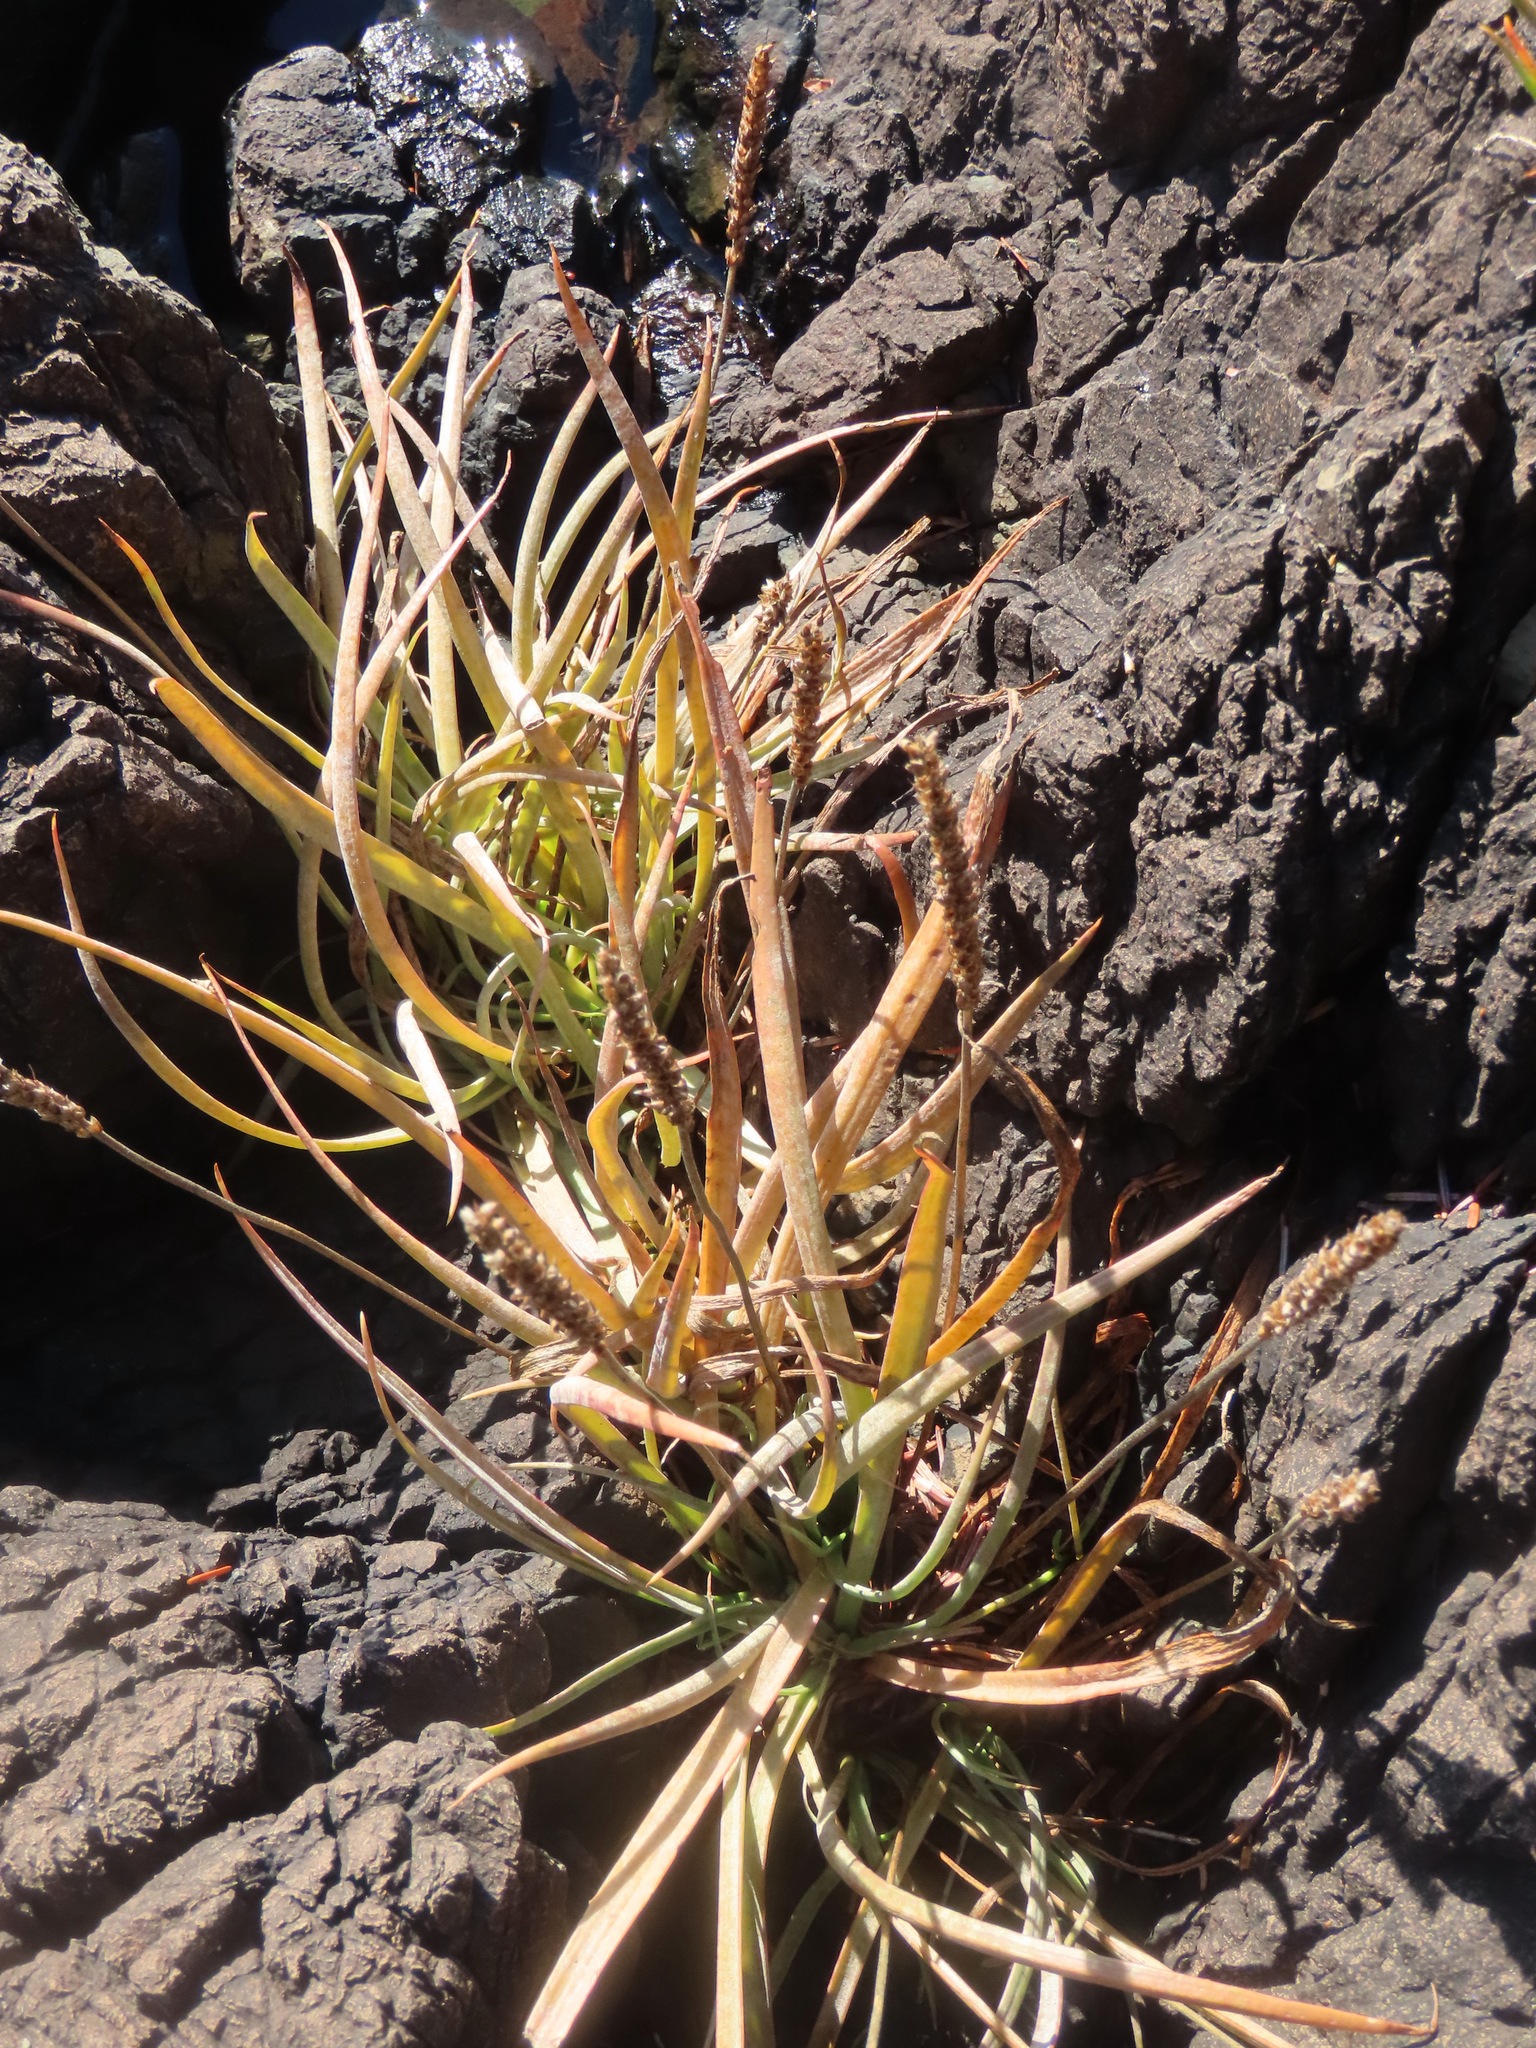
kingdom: Plantae
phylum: Tracheophyta
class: Magnoliopsida
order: Lamiales
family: Plantaginaceae
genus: Plantago
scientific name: Plantago maritima
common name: Sea plantain
